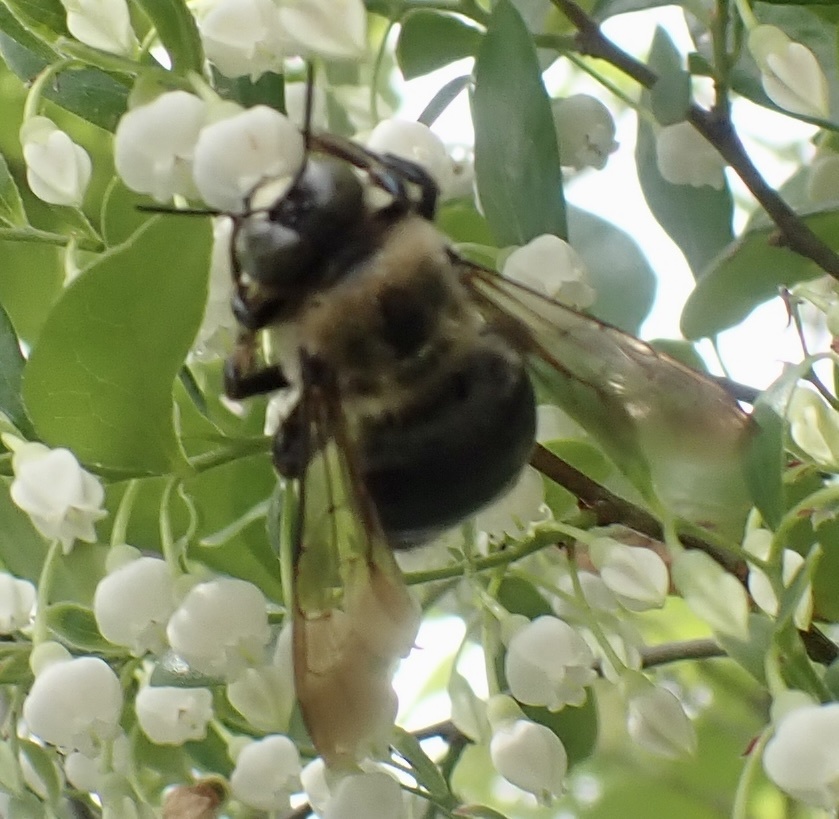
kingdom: Animalia
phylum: Arthropoda
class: Insecta
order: Hymenoptera
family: Apidae
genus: Xylocopa
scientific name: Xylocopa virginica
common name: Carpenter bee
